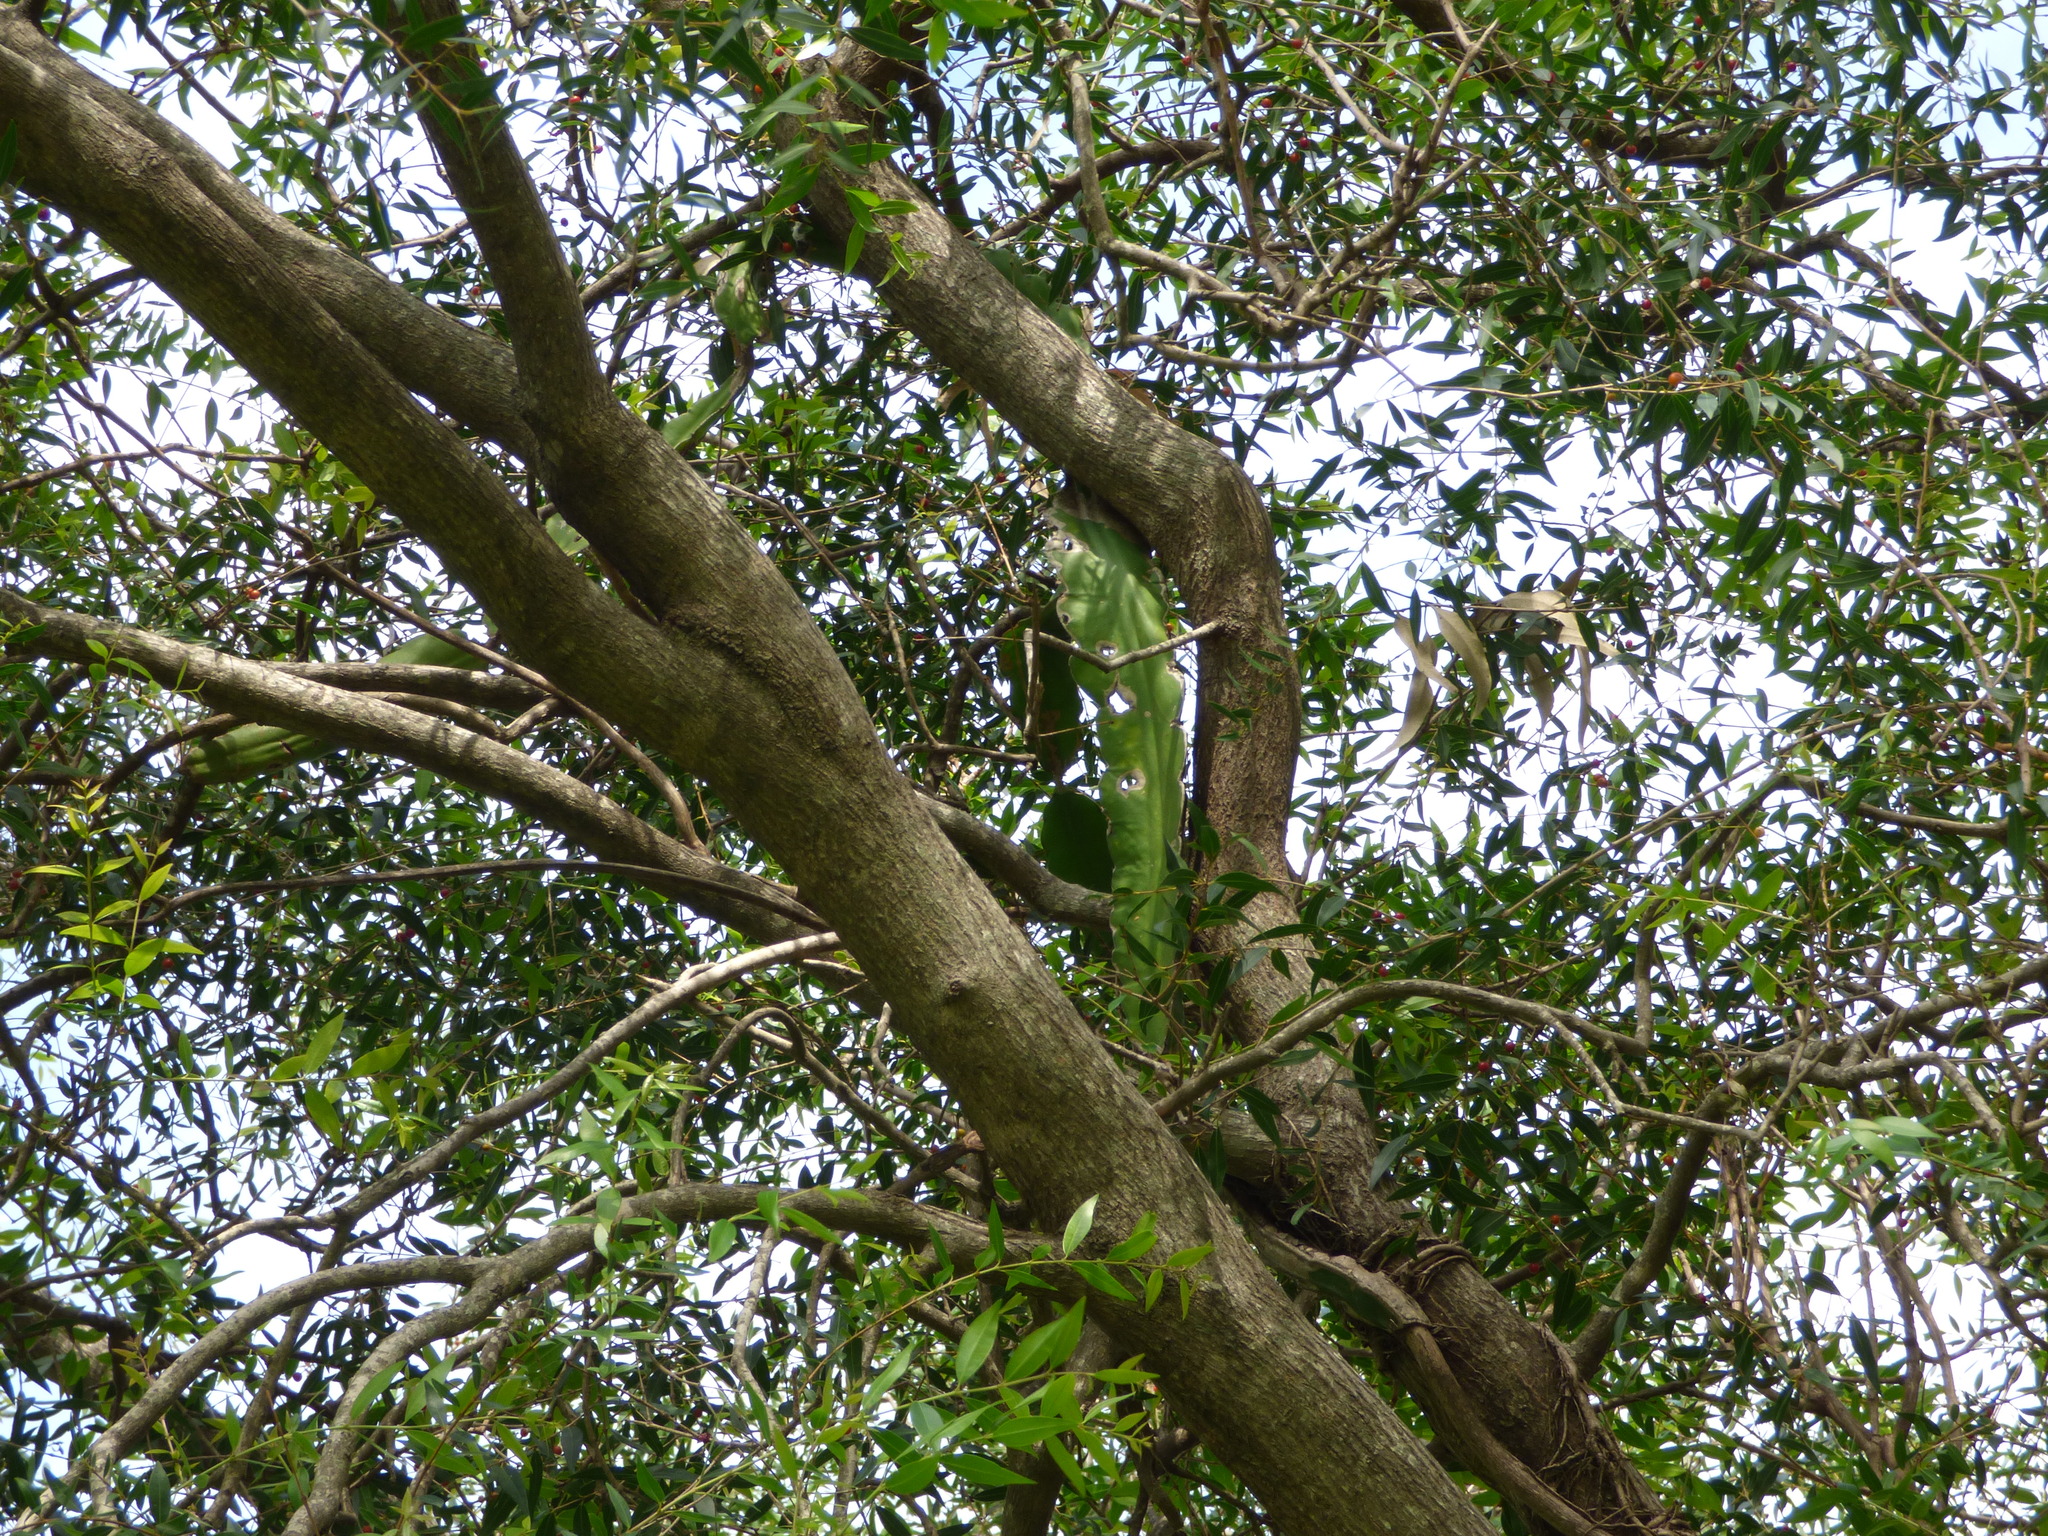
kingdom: Plantae
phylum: Tracheophyta
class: Magnoliopsida
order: Caryophyllales
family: Cactaceae
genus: Selenicereus
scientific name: Selenicereus undatus
